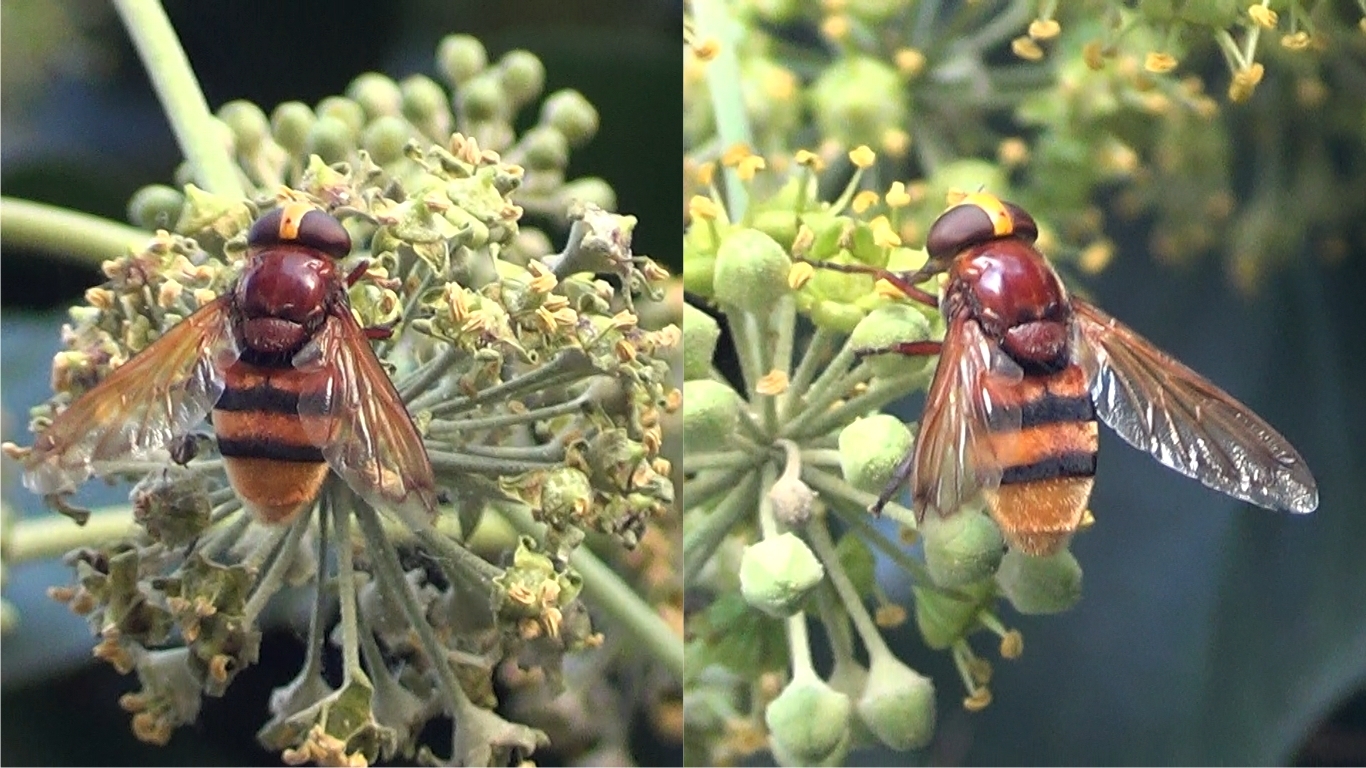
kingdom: Animalia
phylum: Arthropoda
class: Insecta
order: Diptera
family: Syrphidae
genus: Volucella
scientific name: Volucella zonaria
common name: Hornet hoverfly
